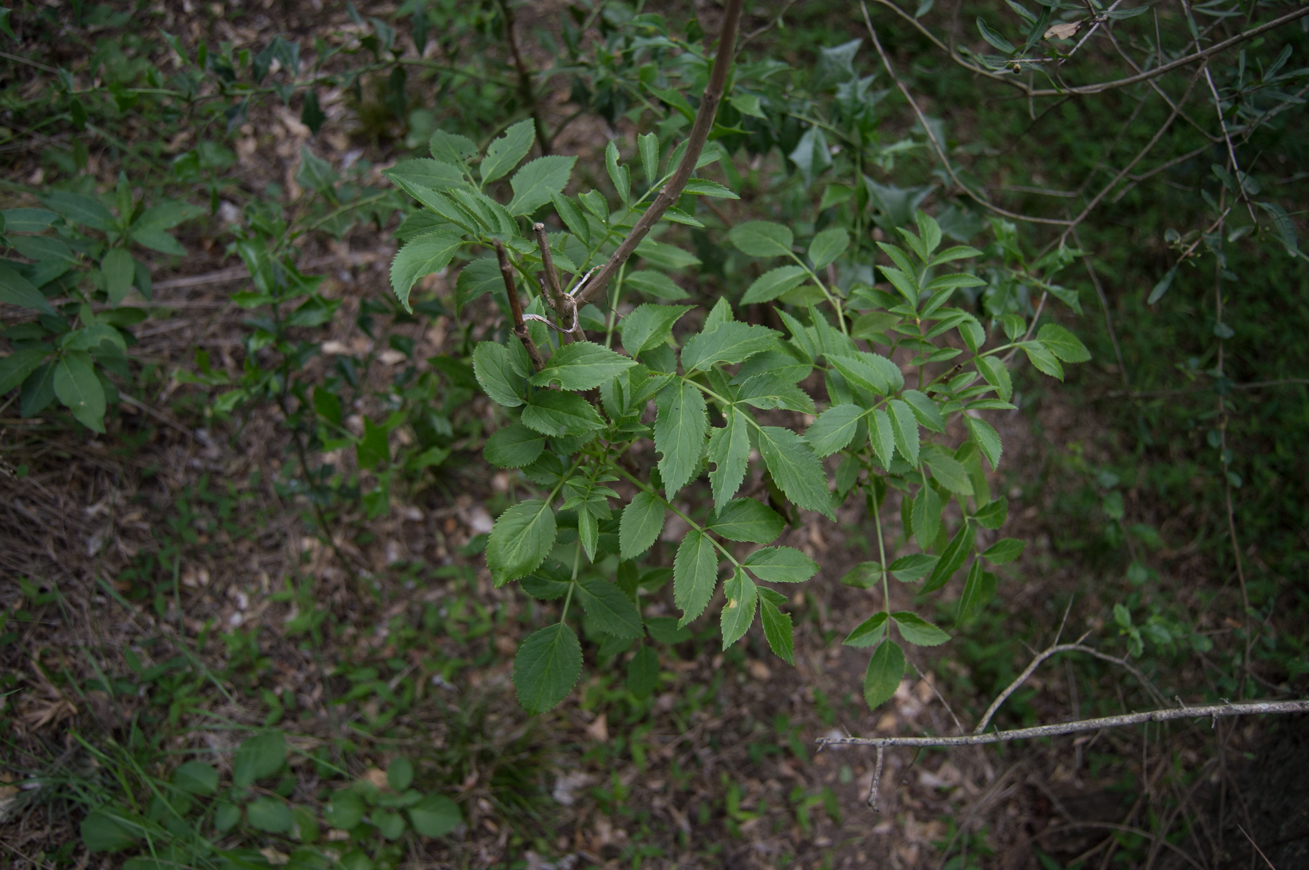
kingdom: Plantae
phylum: Tracheophyta
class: Magnoliopsida
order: Dipsacales
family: Viburnaceae
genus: Sambucus
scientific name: Sambucus australis
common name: Southern elder
